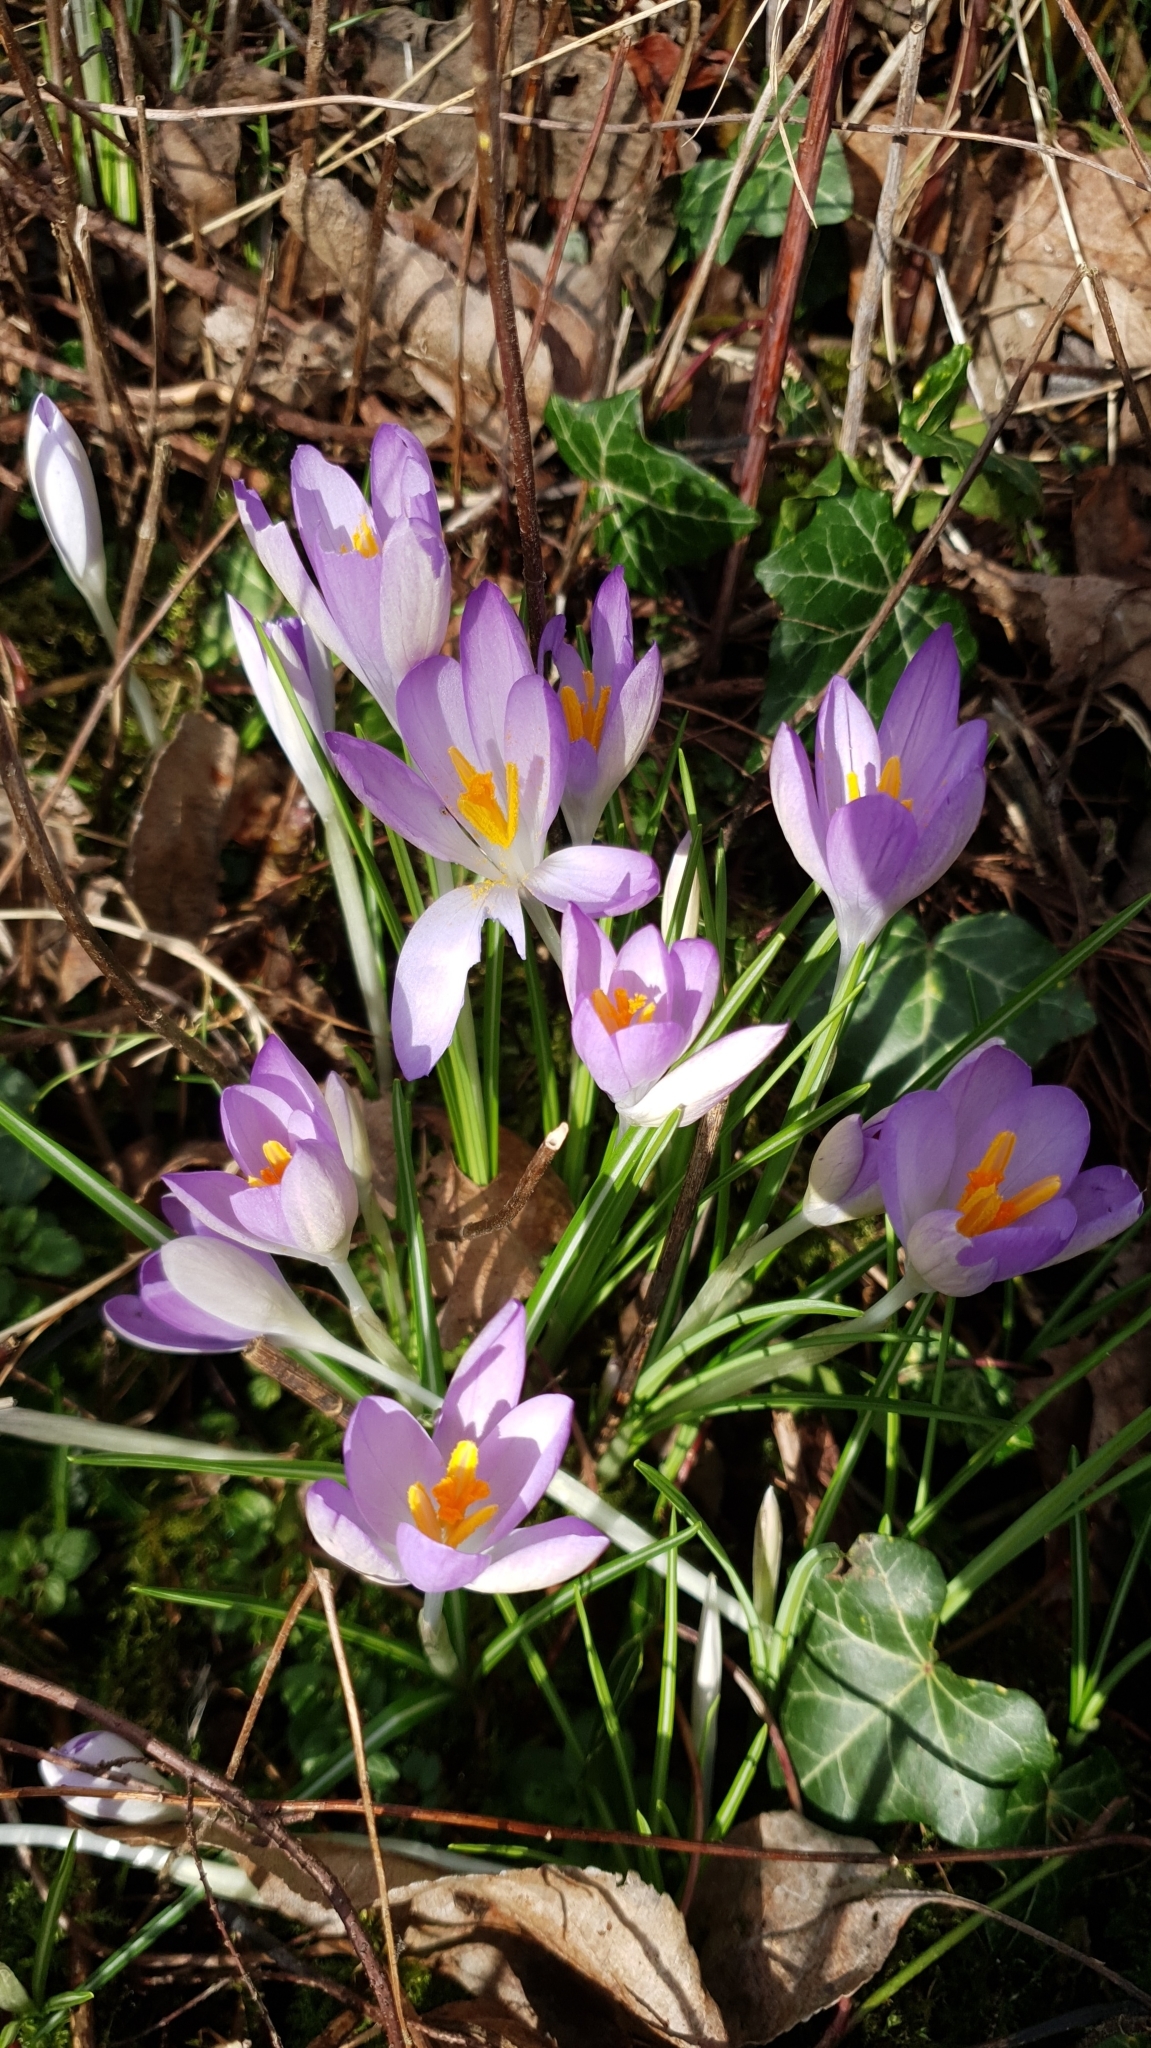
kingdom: Plantae
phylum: Tracheophyta
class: Liliopsida
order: Asparagales
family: Iridaceae
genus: Crocus
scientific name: Crocus tommasinianus
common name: Early crocus
